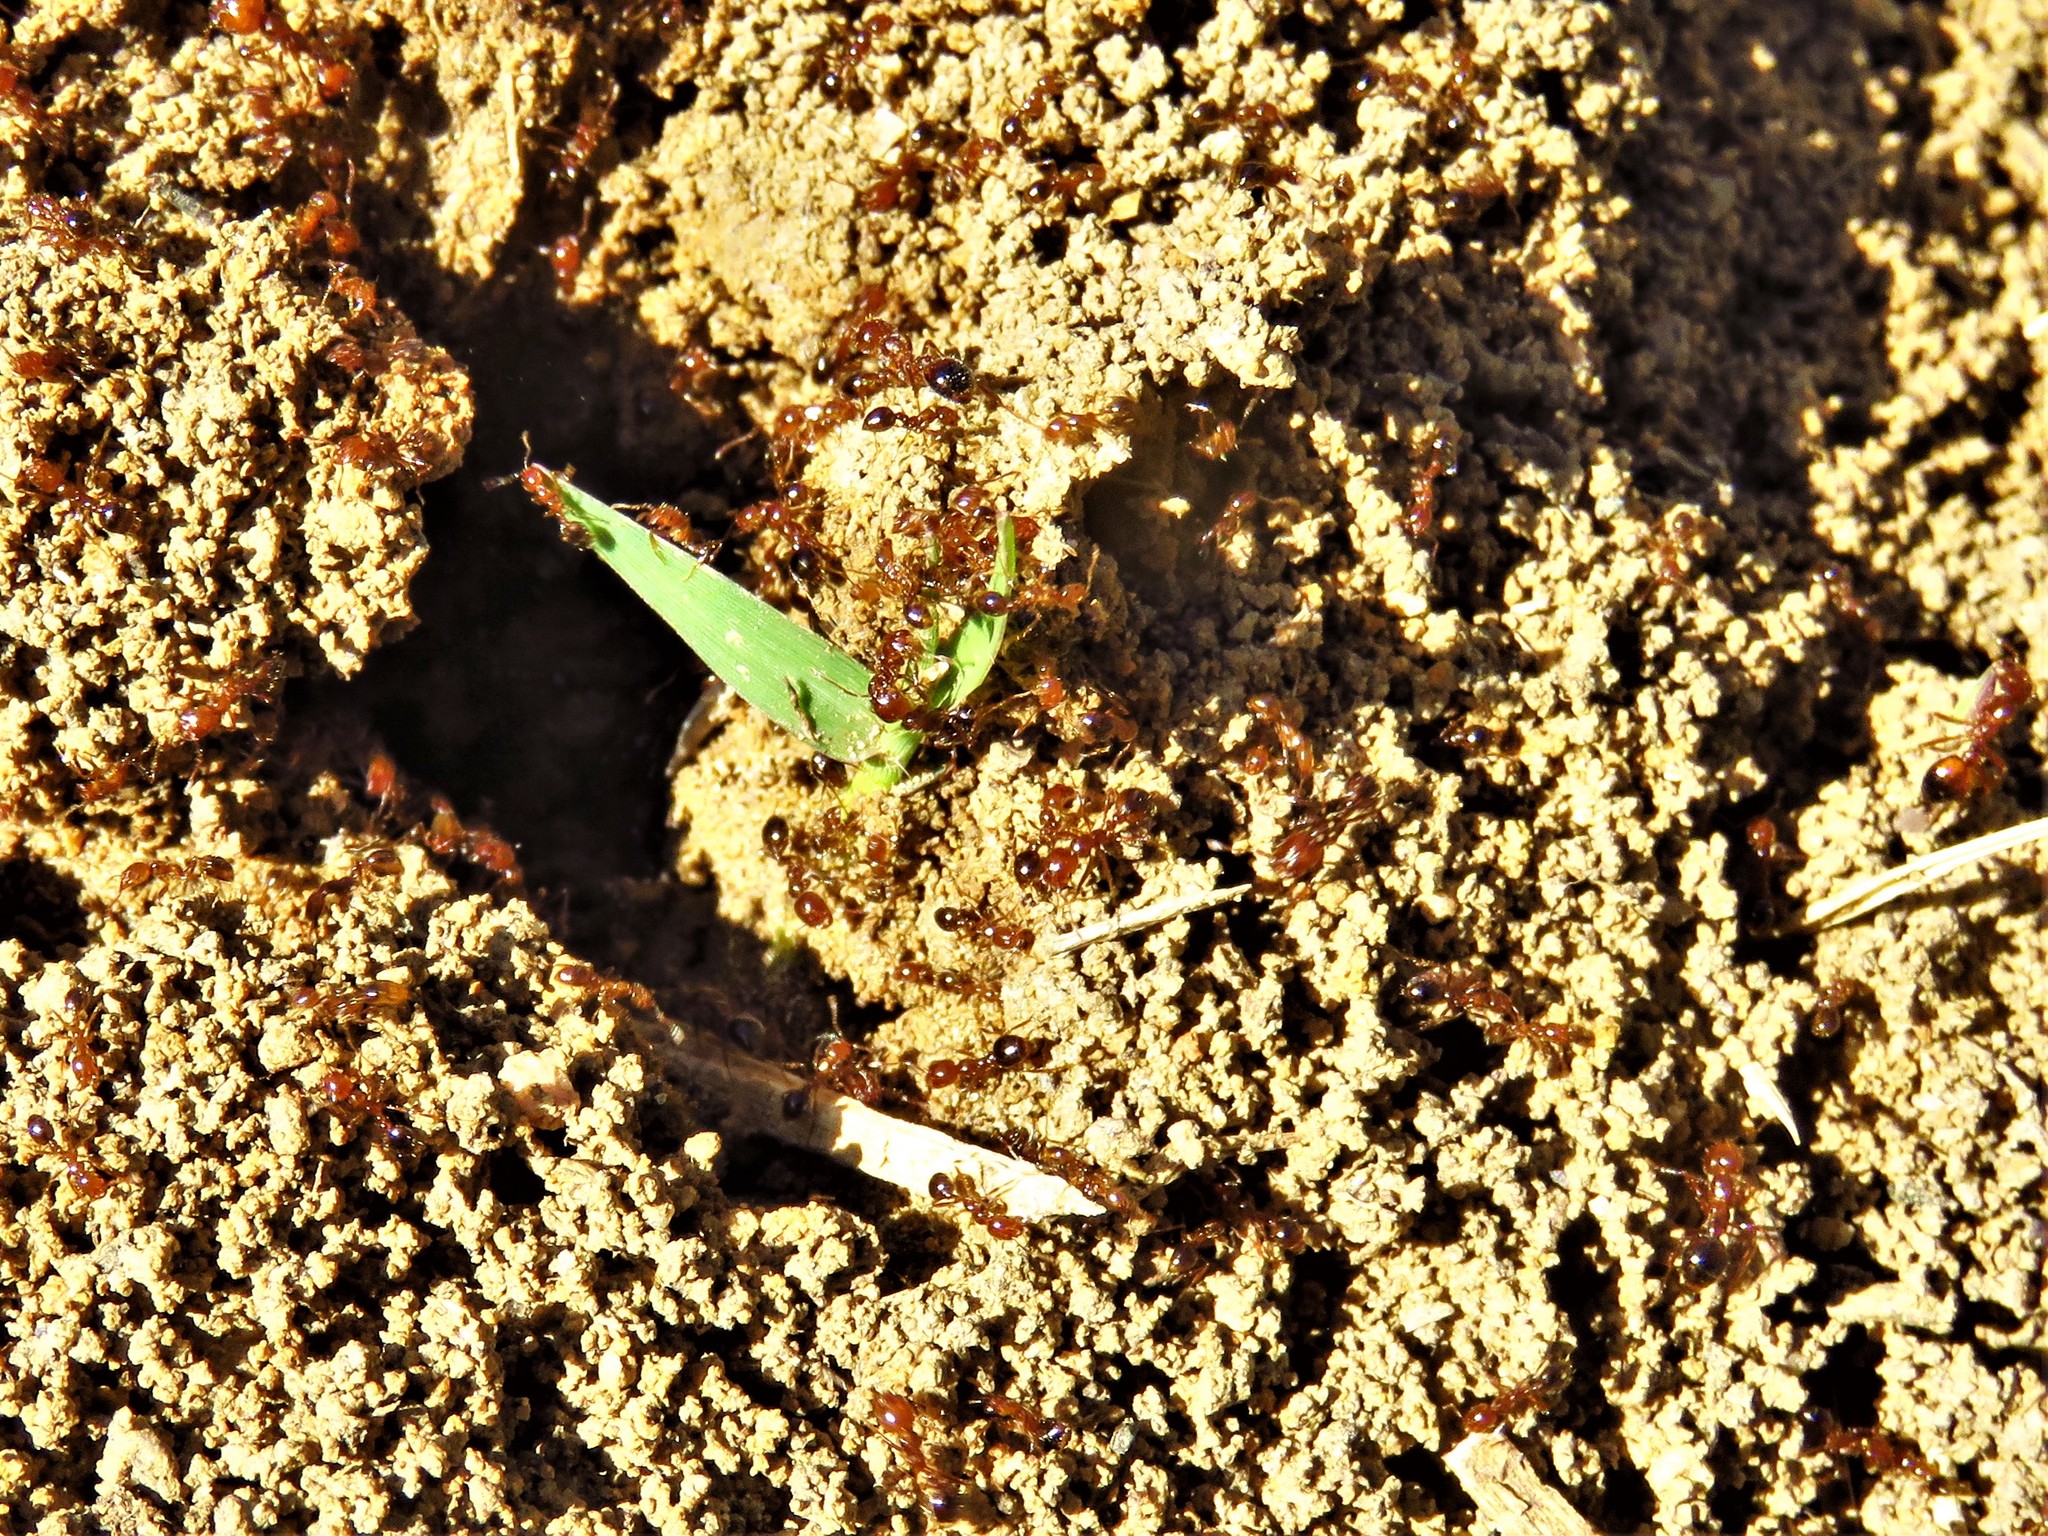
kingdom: Animalia
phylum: Arthropoda
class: Insecta
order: Hymenoptera
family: Formicidae
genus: Solenopsis
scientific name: Solenopsis invicta
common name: Red imported fire ant
